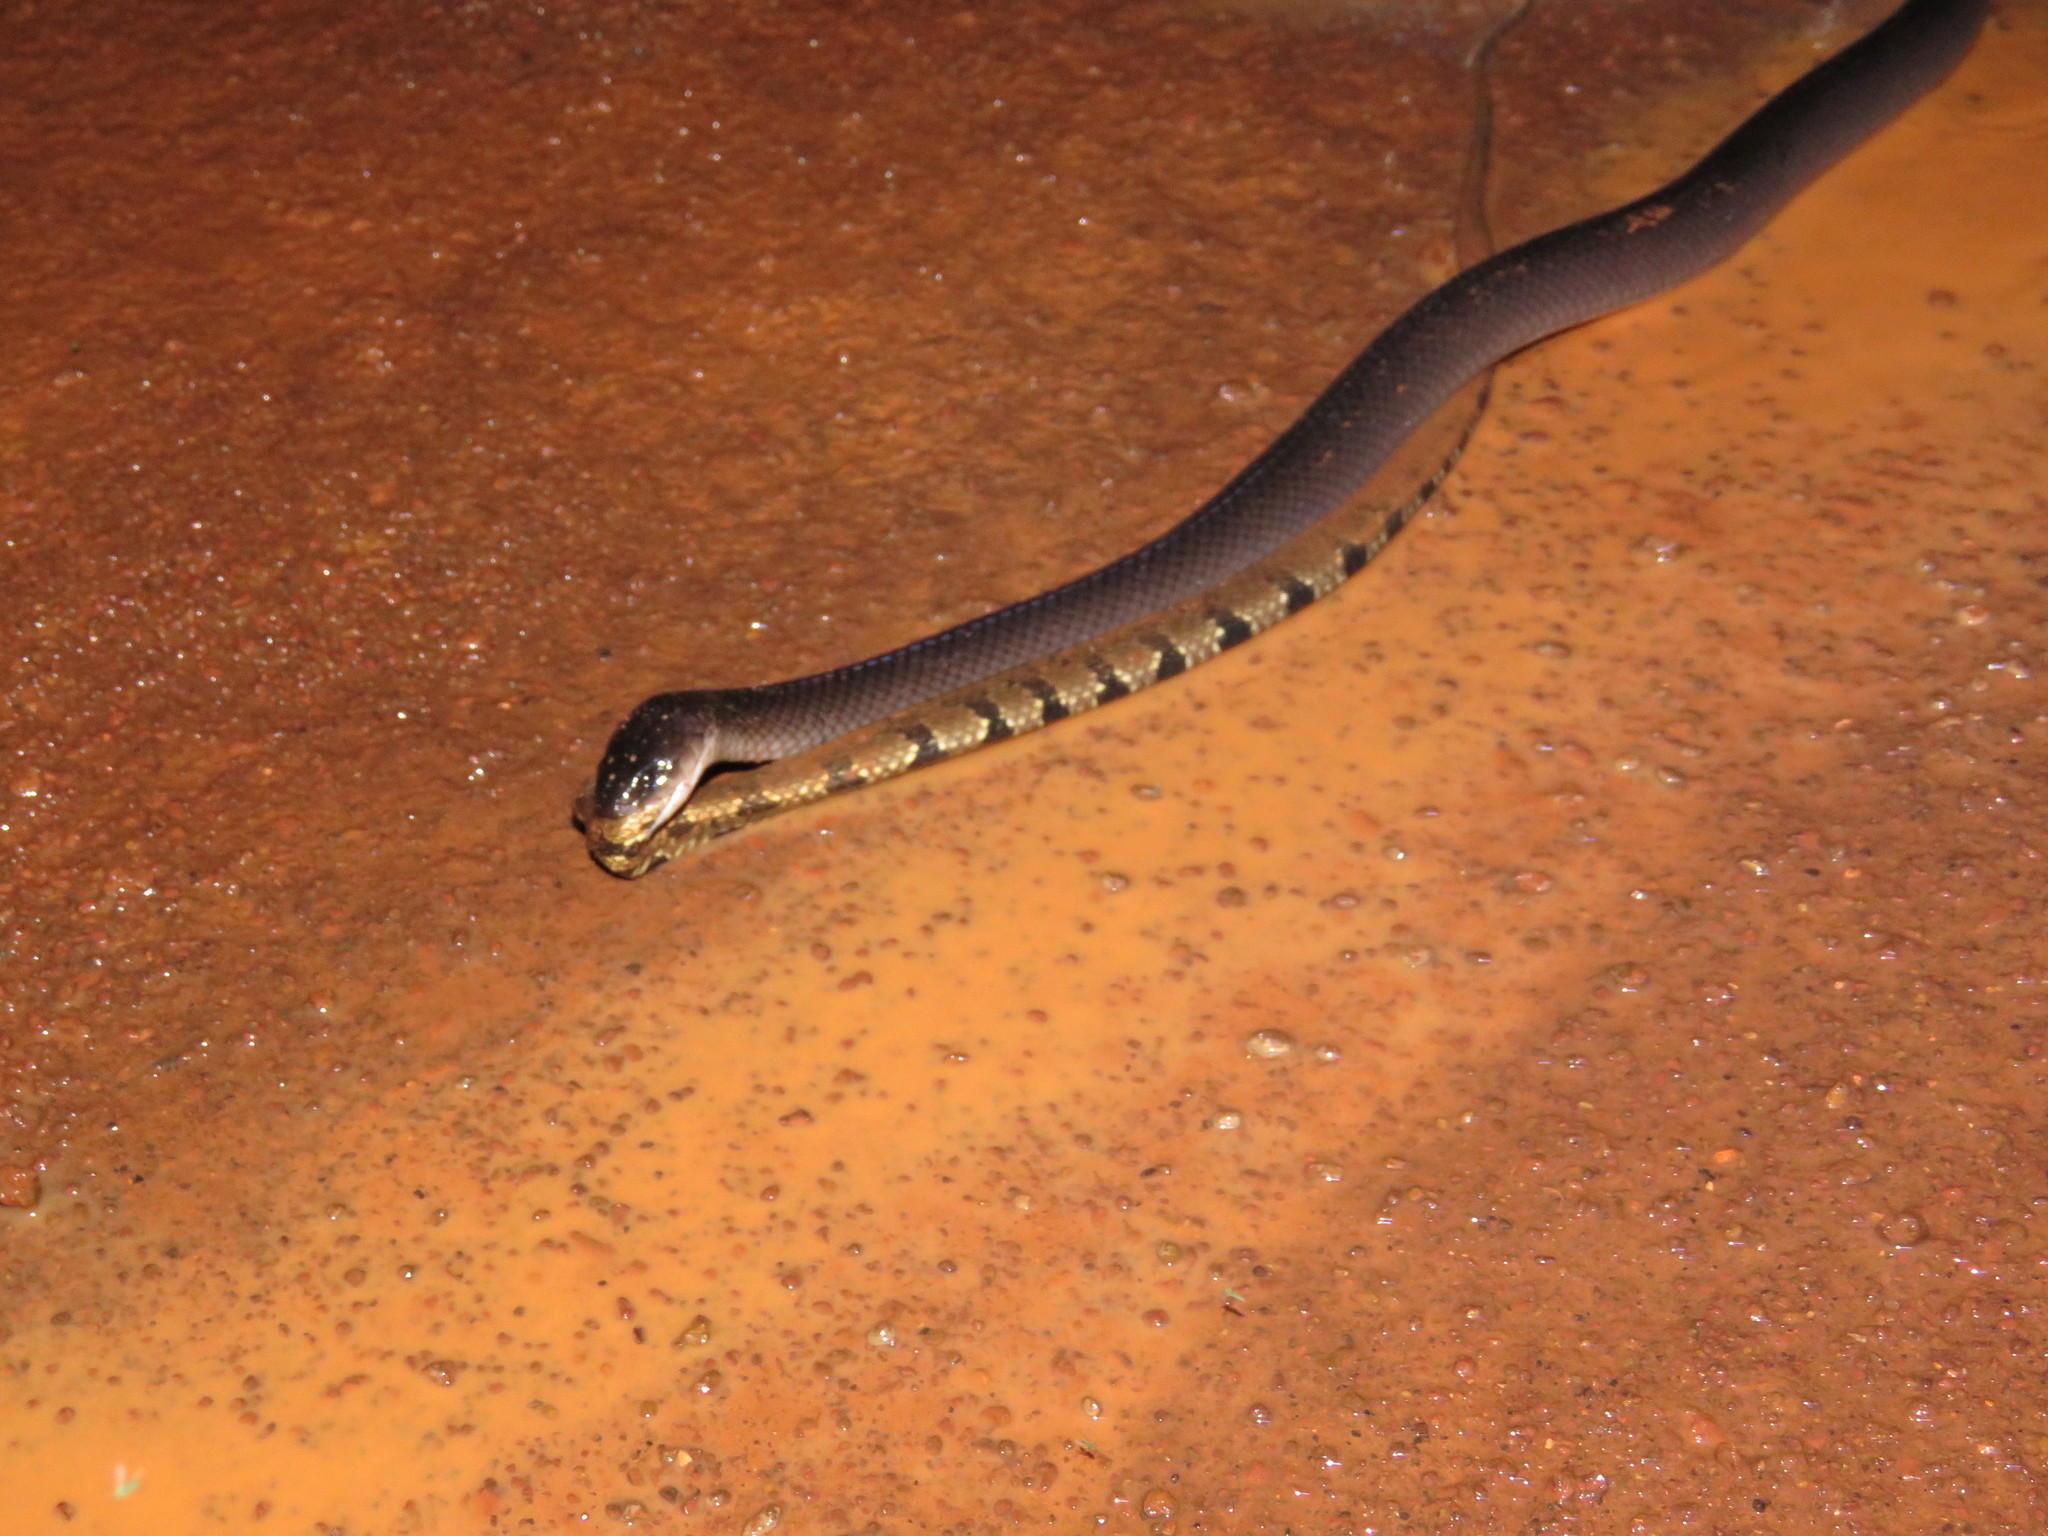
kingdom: Animalia
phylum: Chordata
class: Squamata
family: Colubridae
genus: Clelia
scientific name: Clelia clelia
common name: Mussurana
